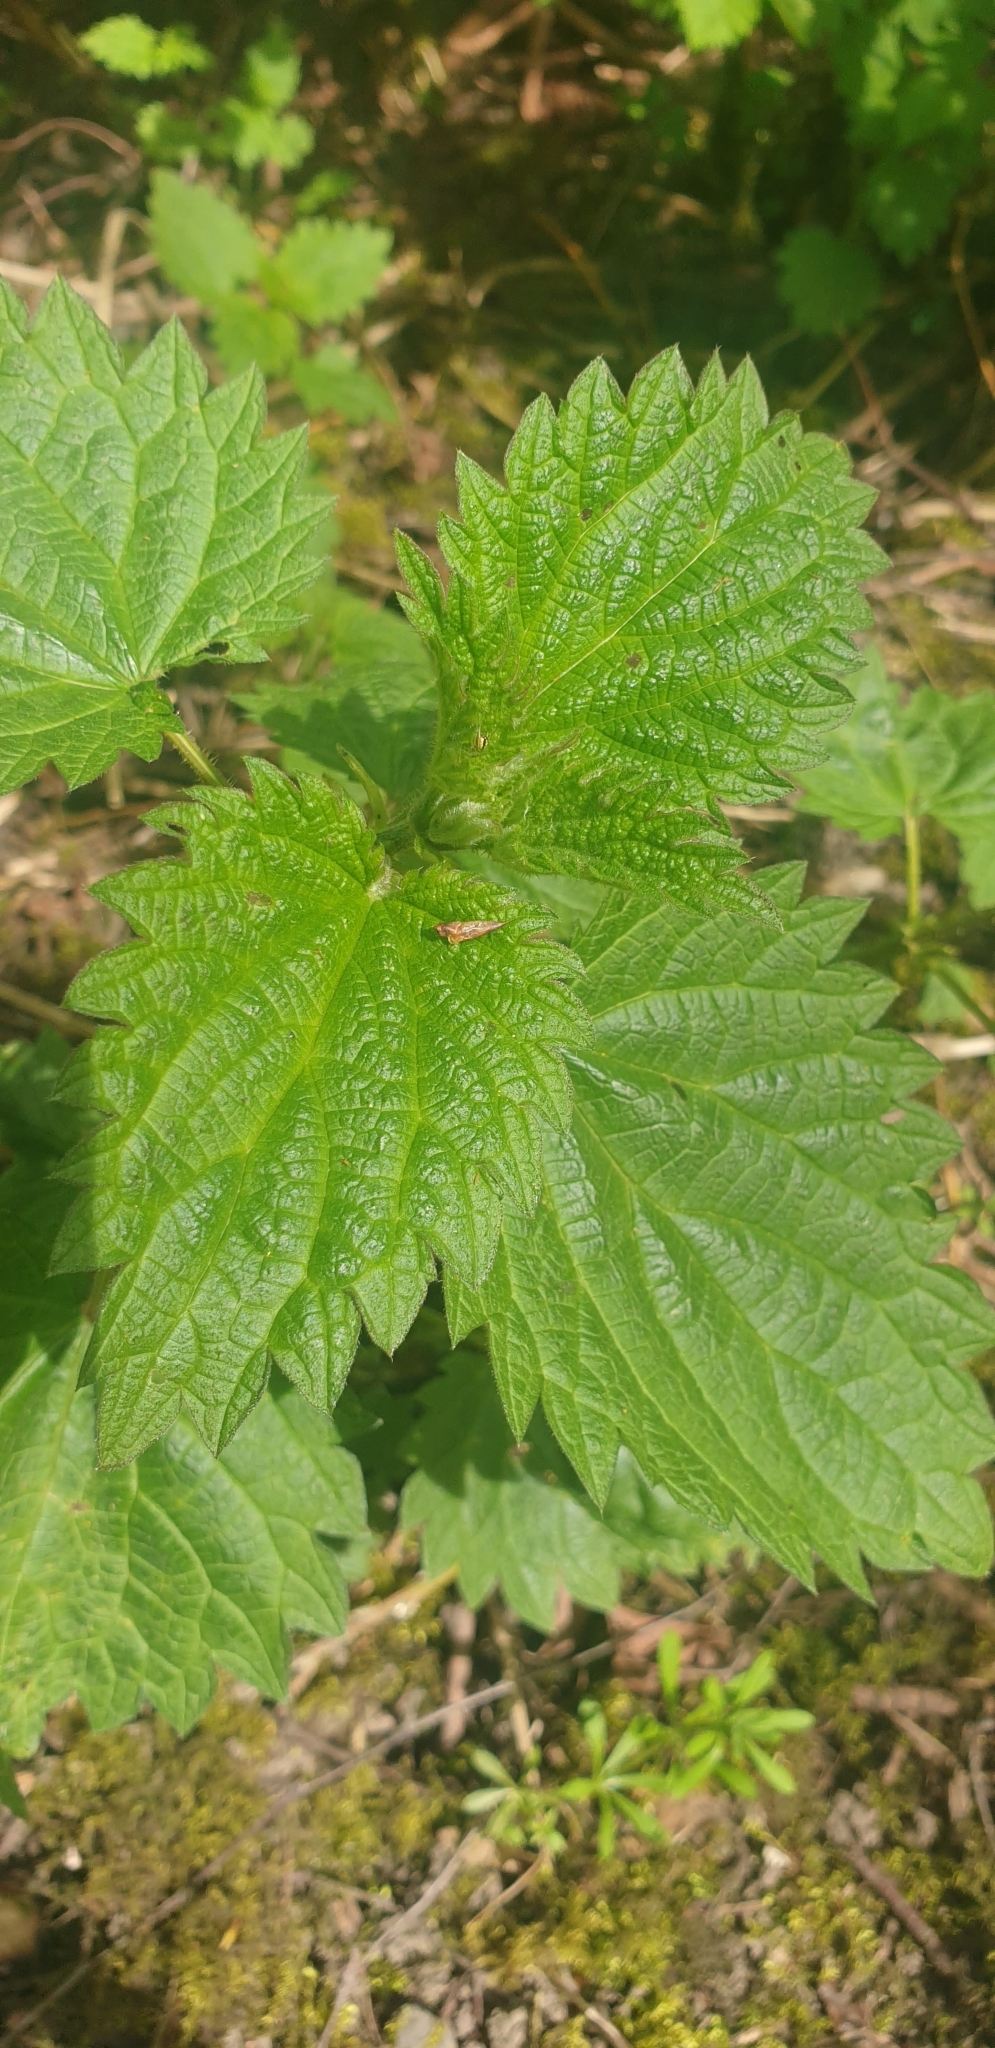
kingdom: Plantae
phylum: Tracheophyta
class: Magnoliopsida
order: Rosales
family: Urticaceae
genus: Urtica
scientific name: Urtica dioica
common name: Common nettle
